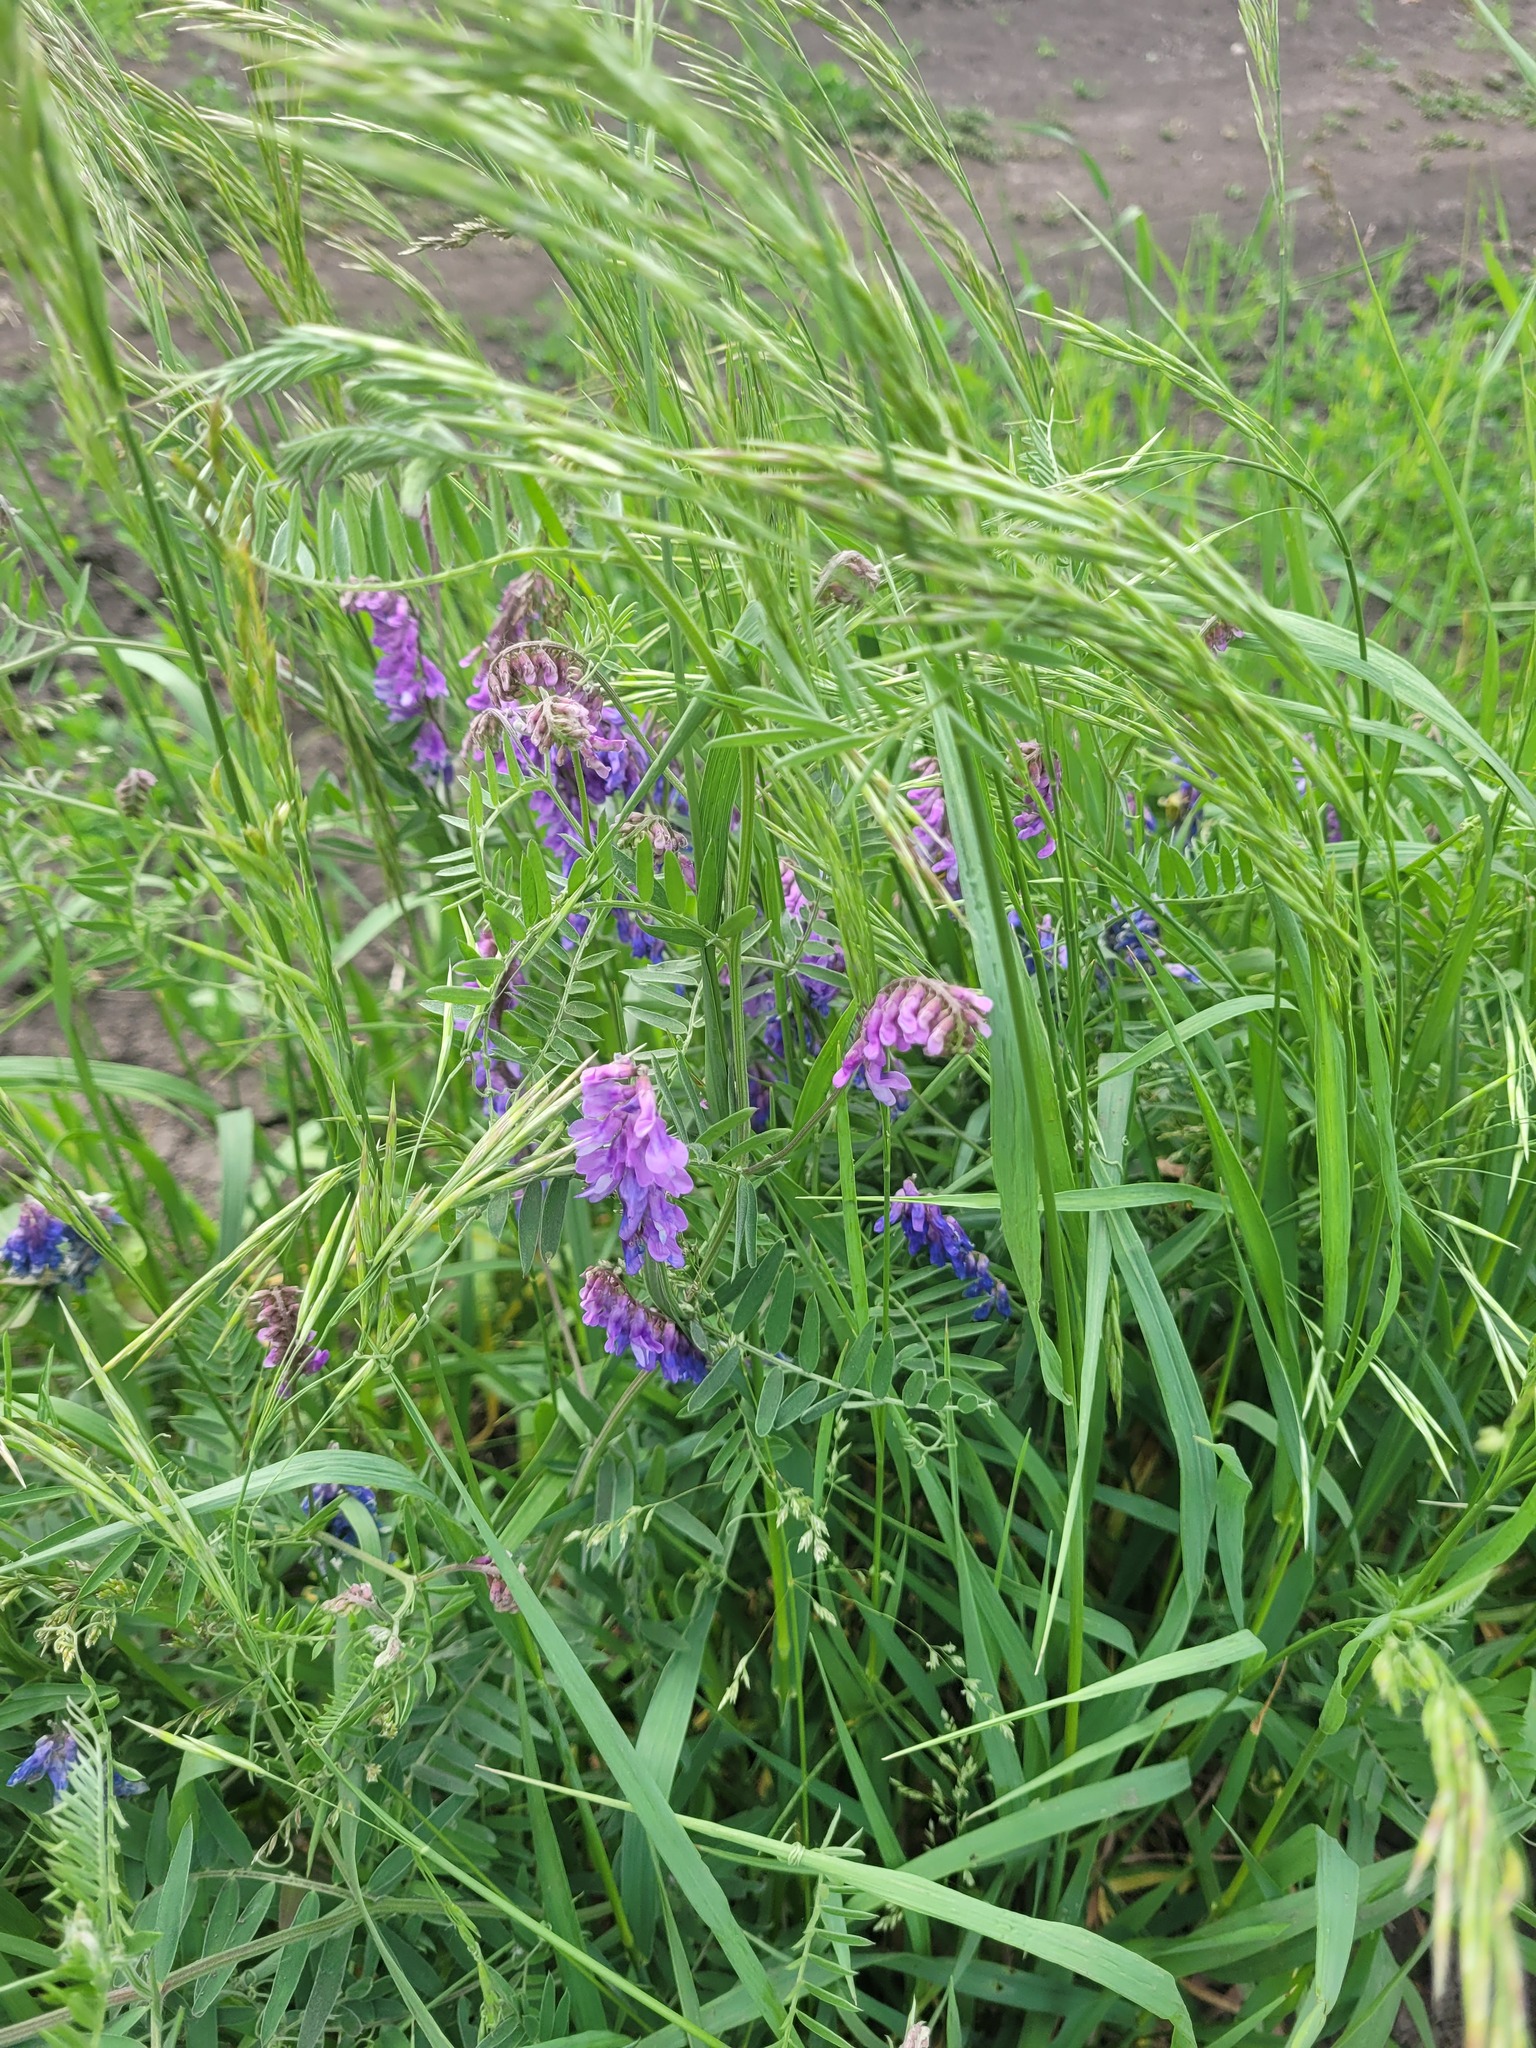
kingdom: Plantae
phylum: Tracheophyta
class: Magnoliopsida
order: Fabales
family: Fabaceae
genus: Vicia
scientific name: Vicia cracca
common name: Bird vetch
